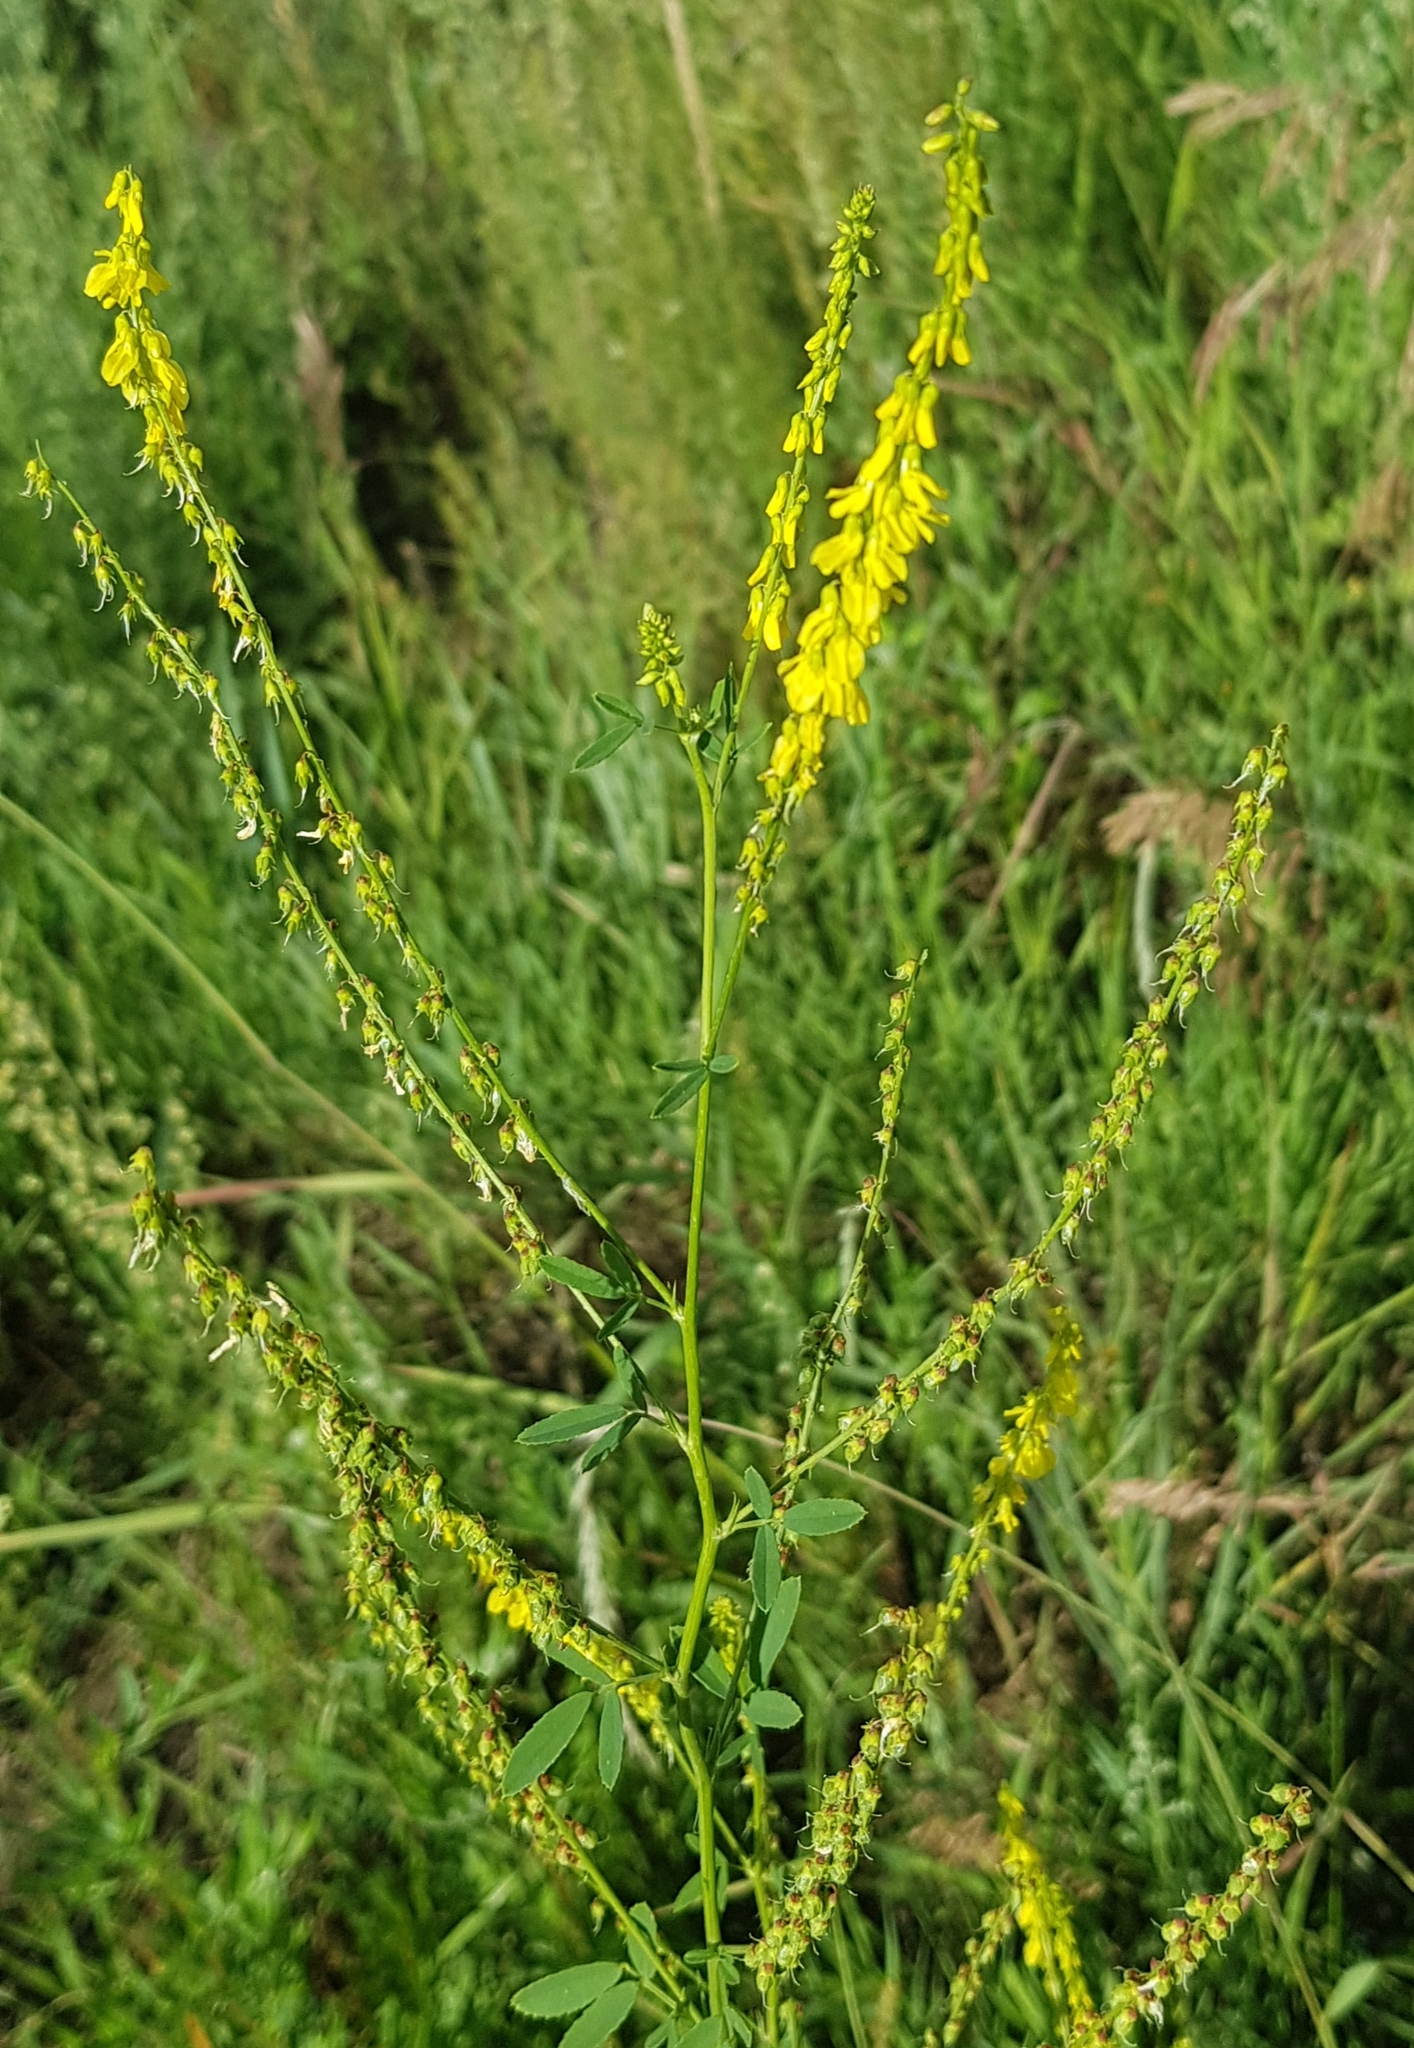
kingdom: Plantae
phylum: Tracheophyta
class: Magnoliopsida
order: Fabales
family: Fabaceae
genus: Melilotus
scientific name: Melilotus officinalis
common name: Sweetclover
